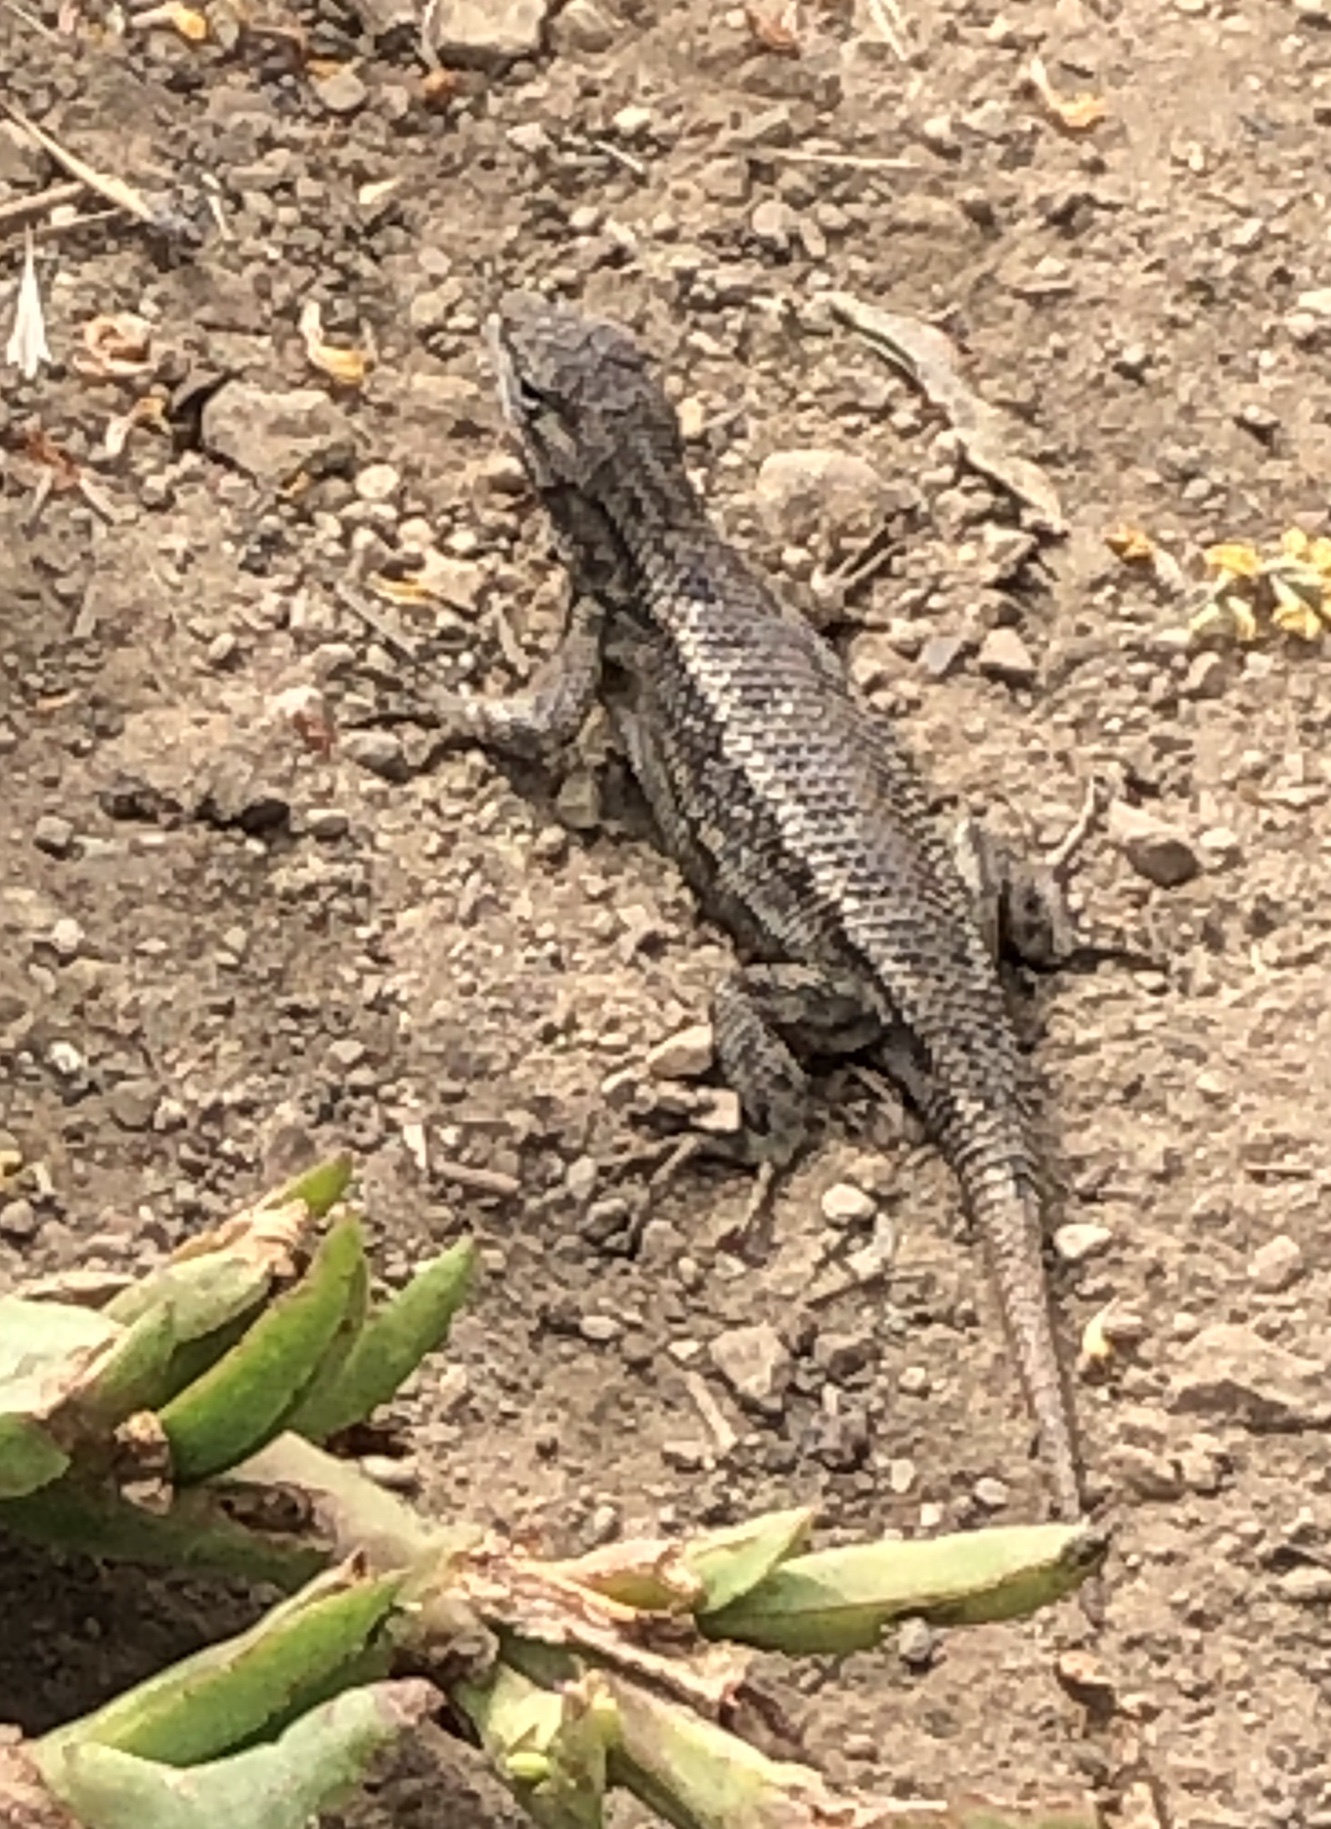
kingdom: Animalia
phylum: Chordata
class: Squamata
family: Phrynosomatidae
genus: Sceloporus
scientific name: Sceloporus occidentalis
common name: Western fence lizard
